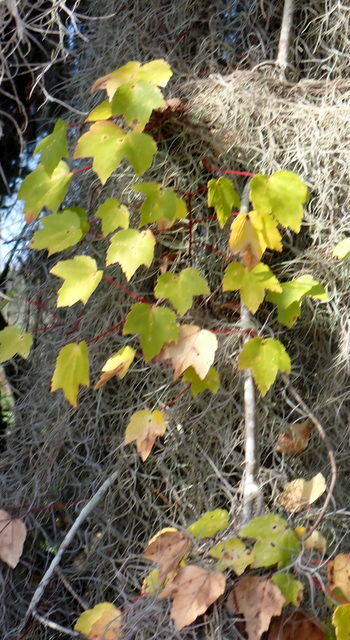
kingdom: Plantae
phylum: Tracheophyta
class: Magnoliopsida
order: Sapindales
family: Sapindaceae
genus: Acer
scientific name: Acer rubrum
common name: Red maple
